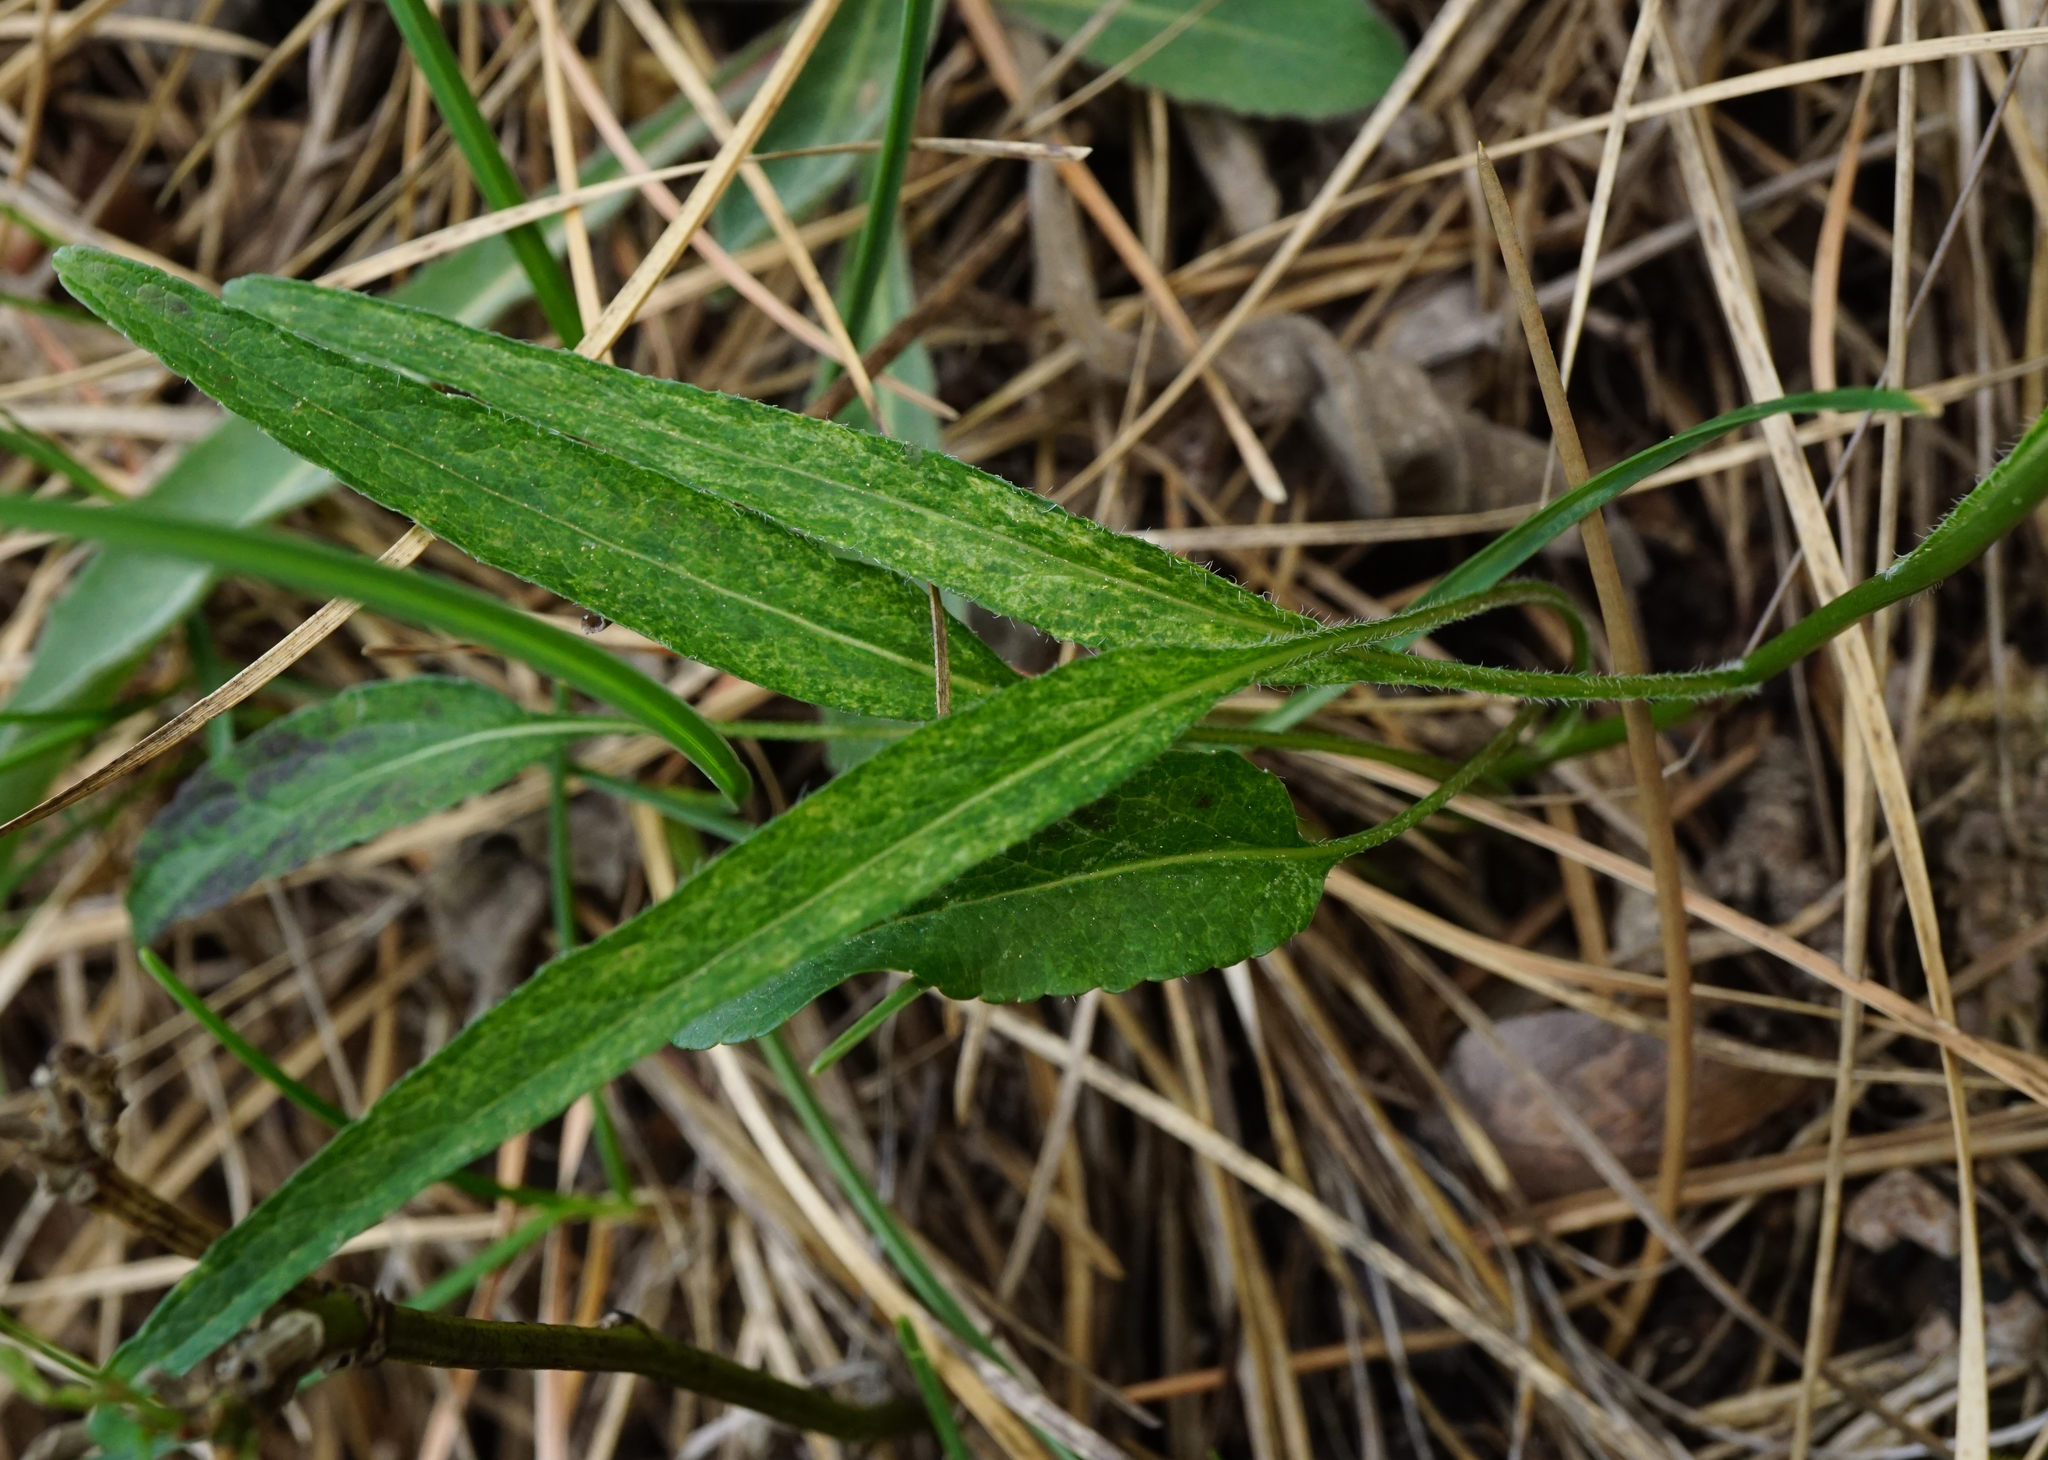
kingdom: Plantae
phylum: Tracheophyta
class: Magnoliopsida
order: Asterales
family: Campanulaceae
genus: Phyteuma
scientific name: Phyteuma orbiculare
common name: Round-headed rampion
